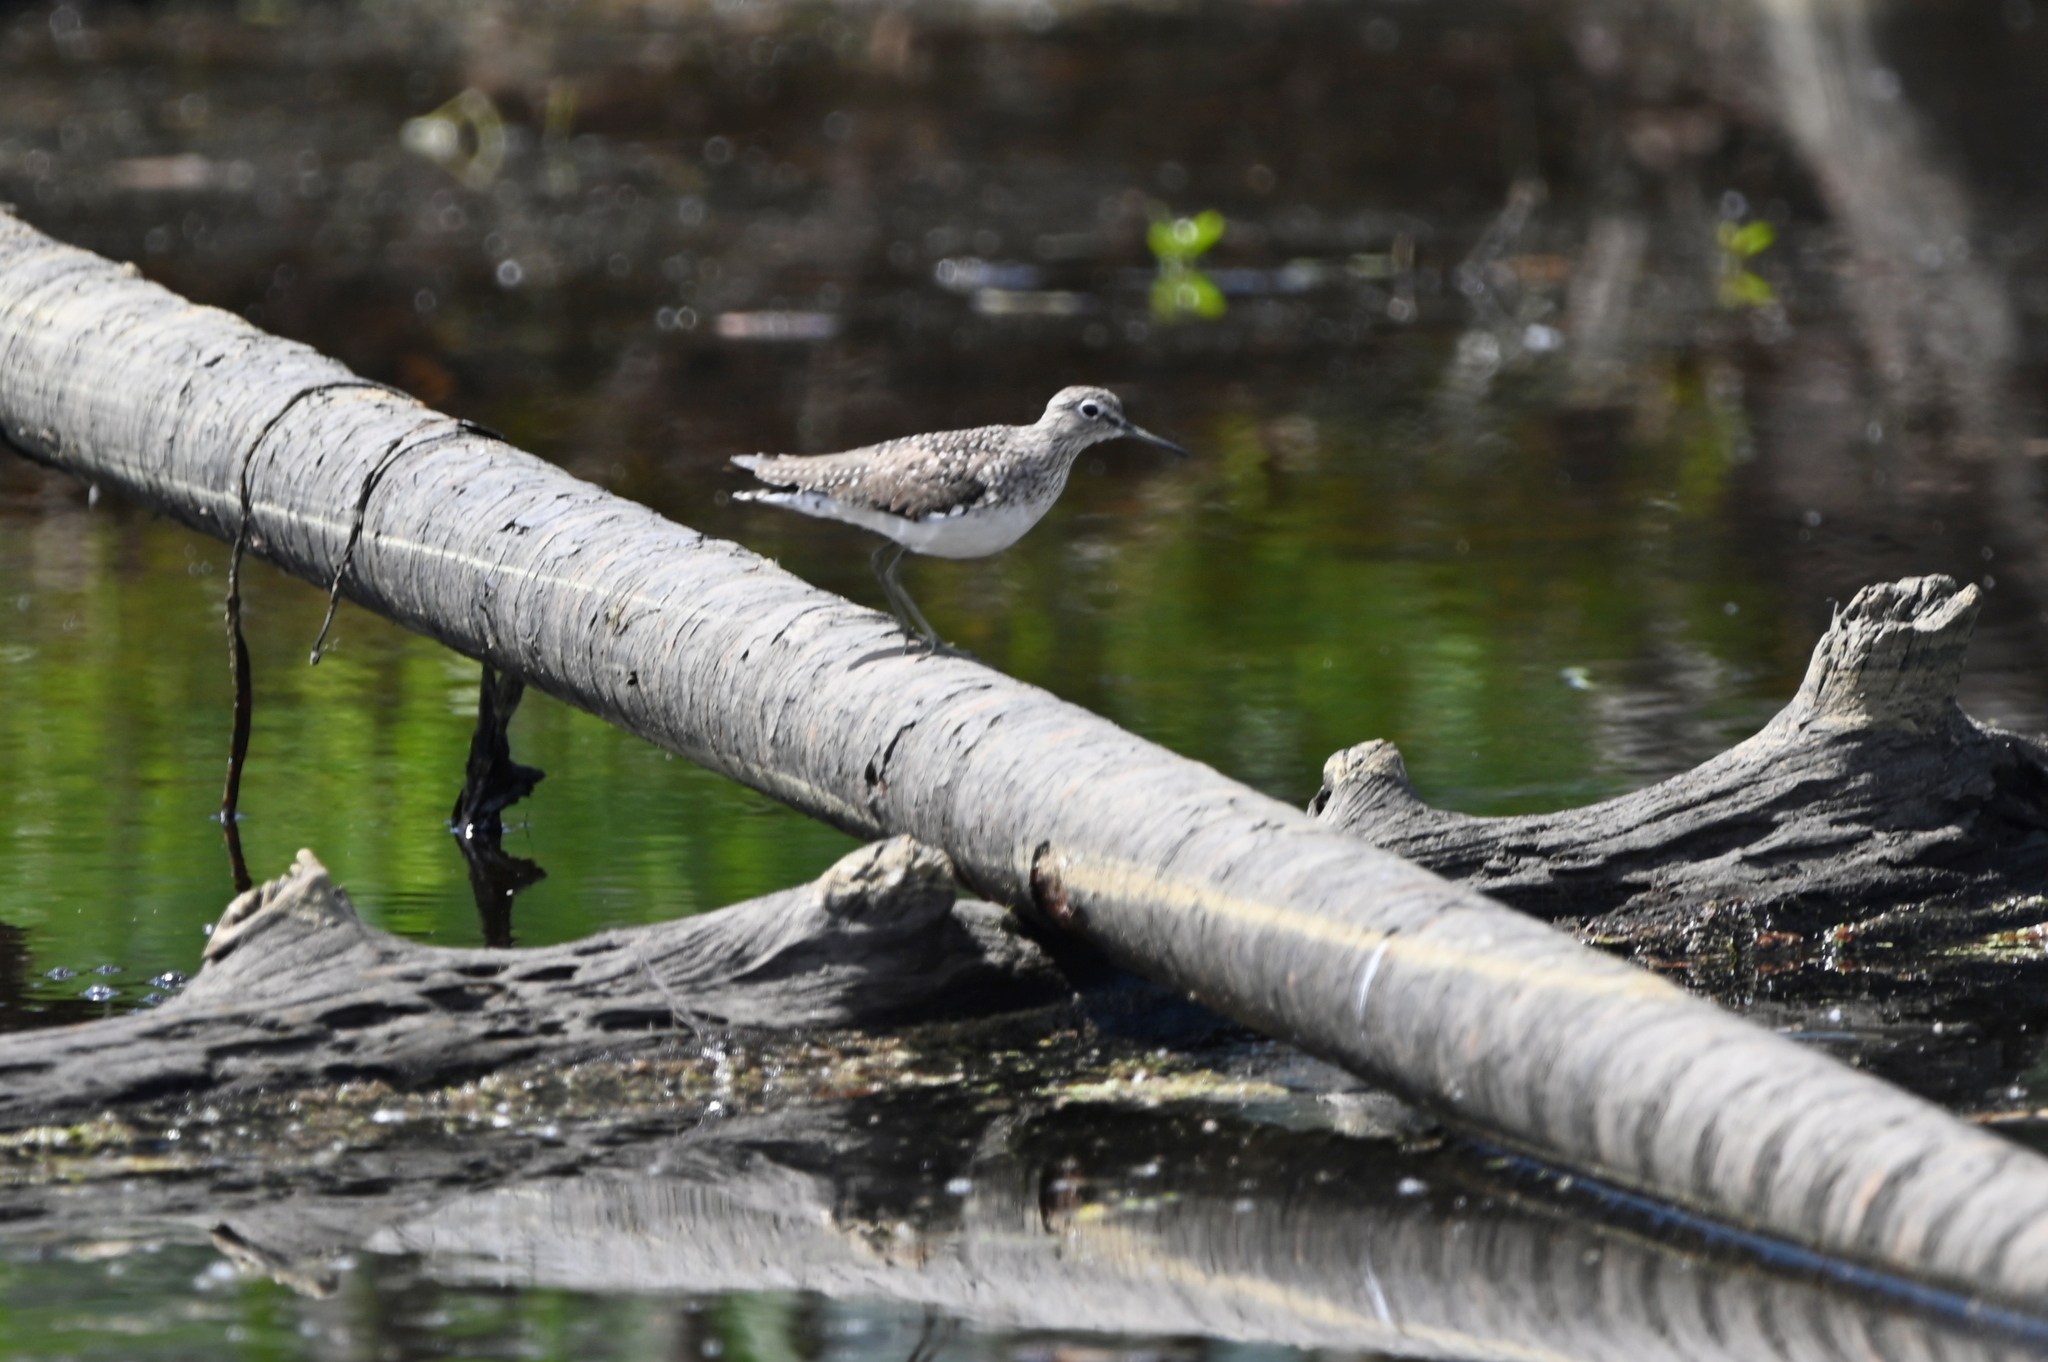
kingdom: Animalia
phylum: Chordata
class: Aves
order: Charadriiformes
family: Scolopacidae
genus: Tringa
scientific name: Tringa solitaria
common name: Solitary sandpiper
